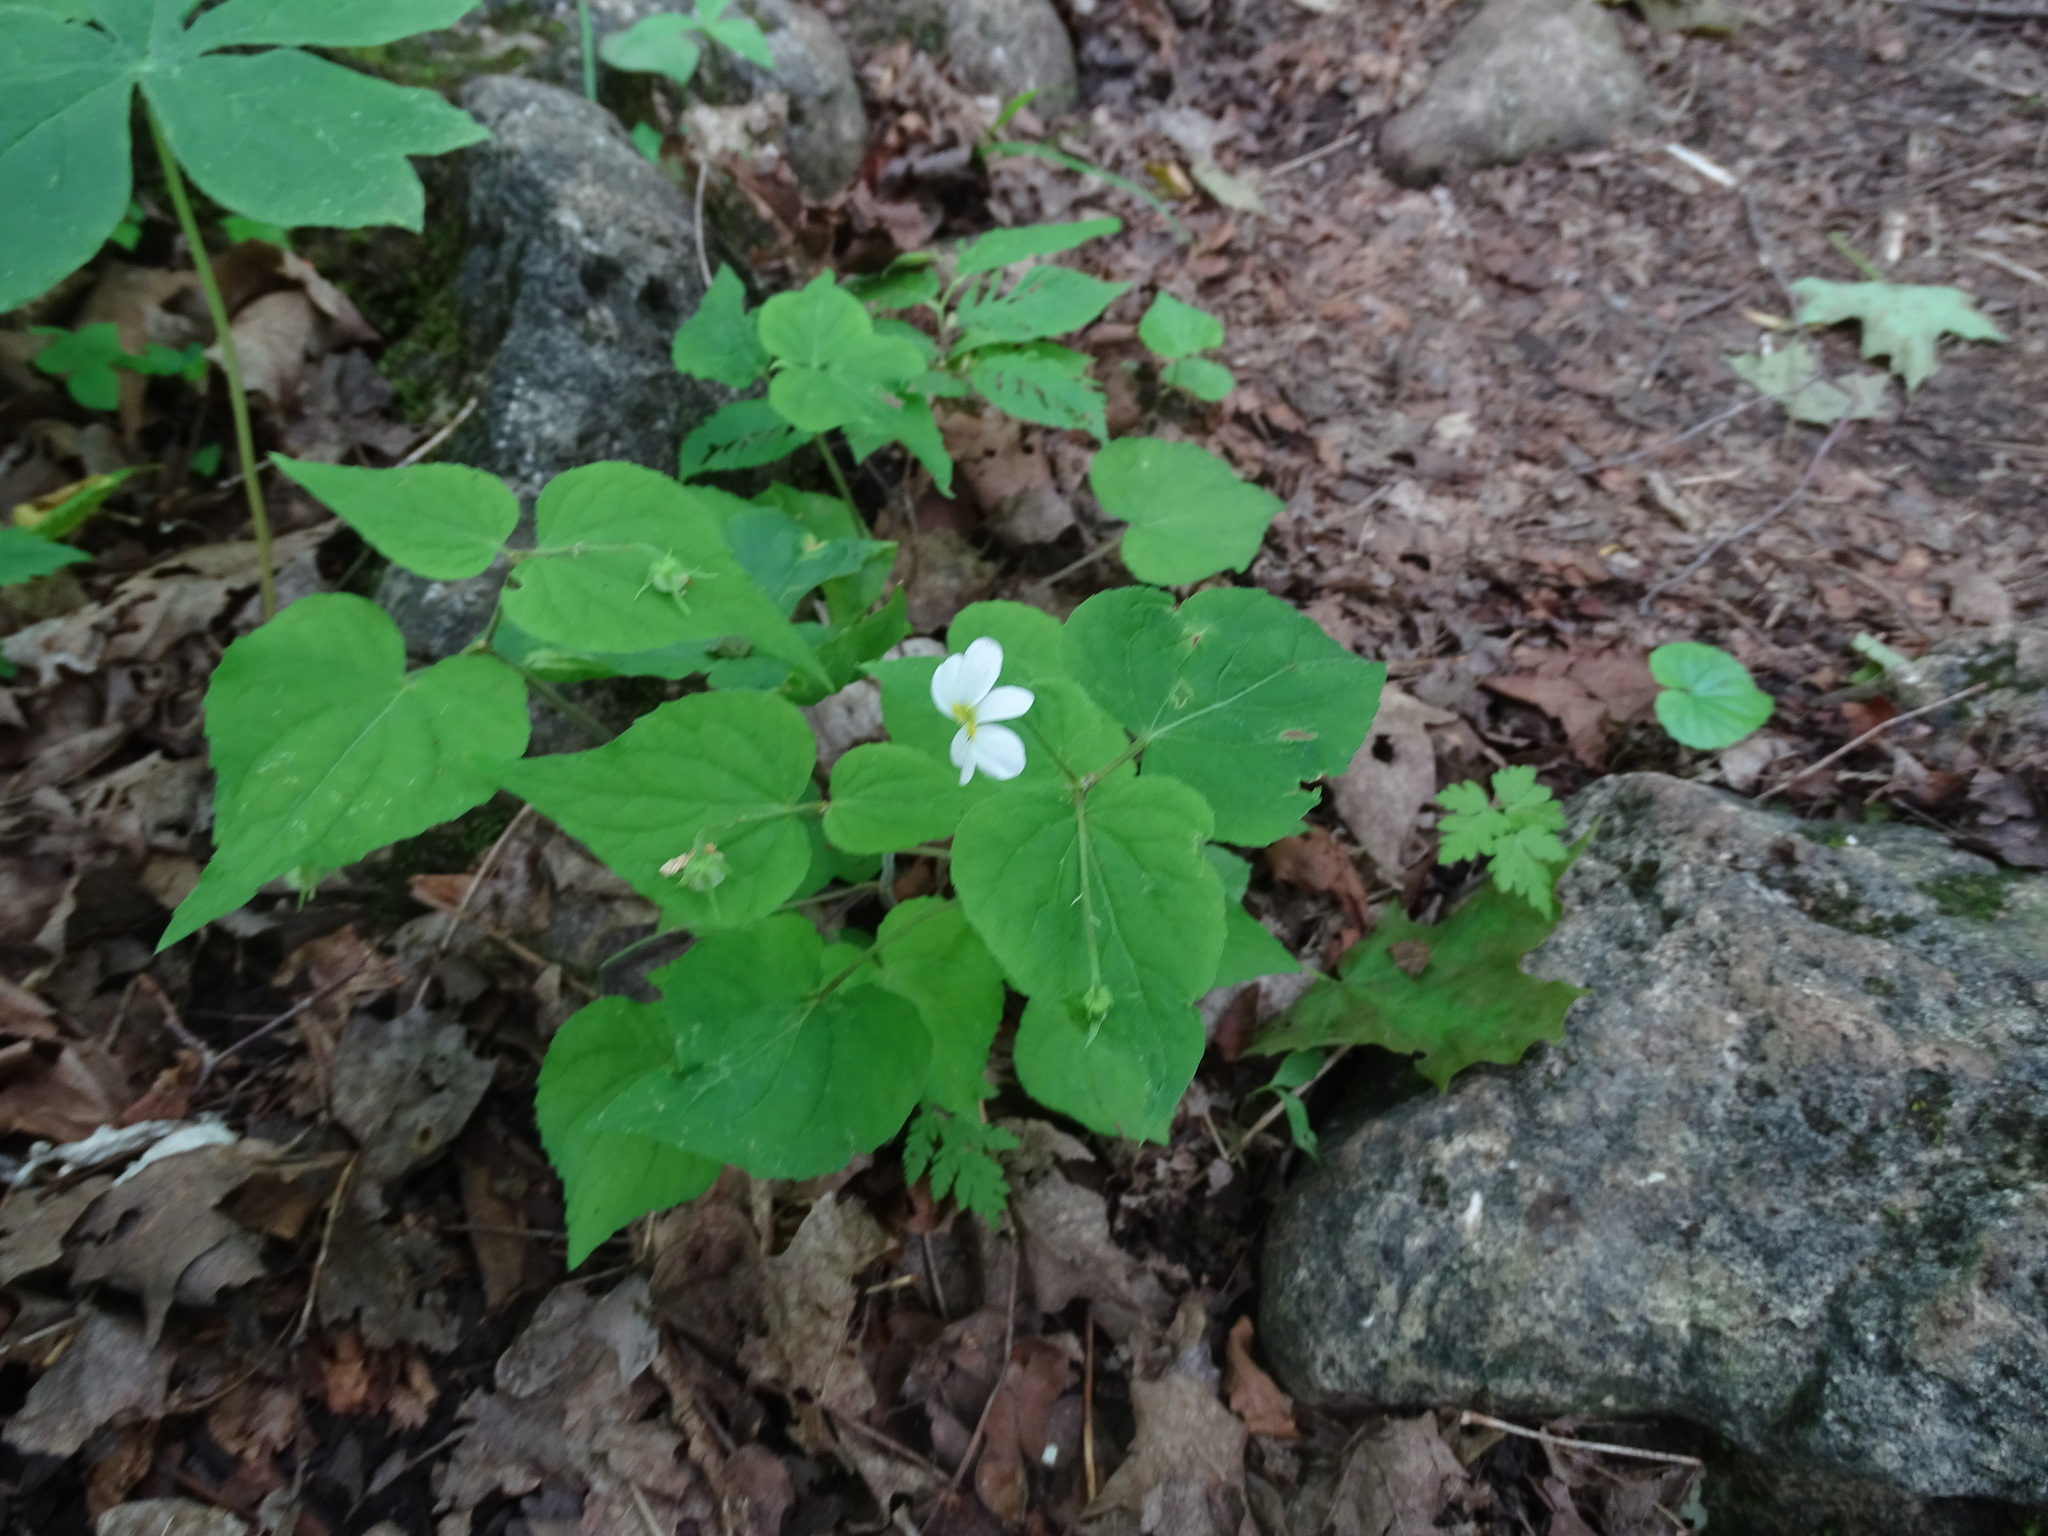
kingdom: Plantae
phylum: Tracheophyta
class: Magnoliopsida
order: Malpighiales
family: Violaceae
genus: Viola
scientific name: Viola canadensis
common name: Canada violet
